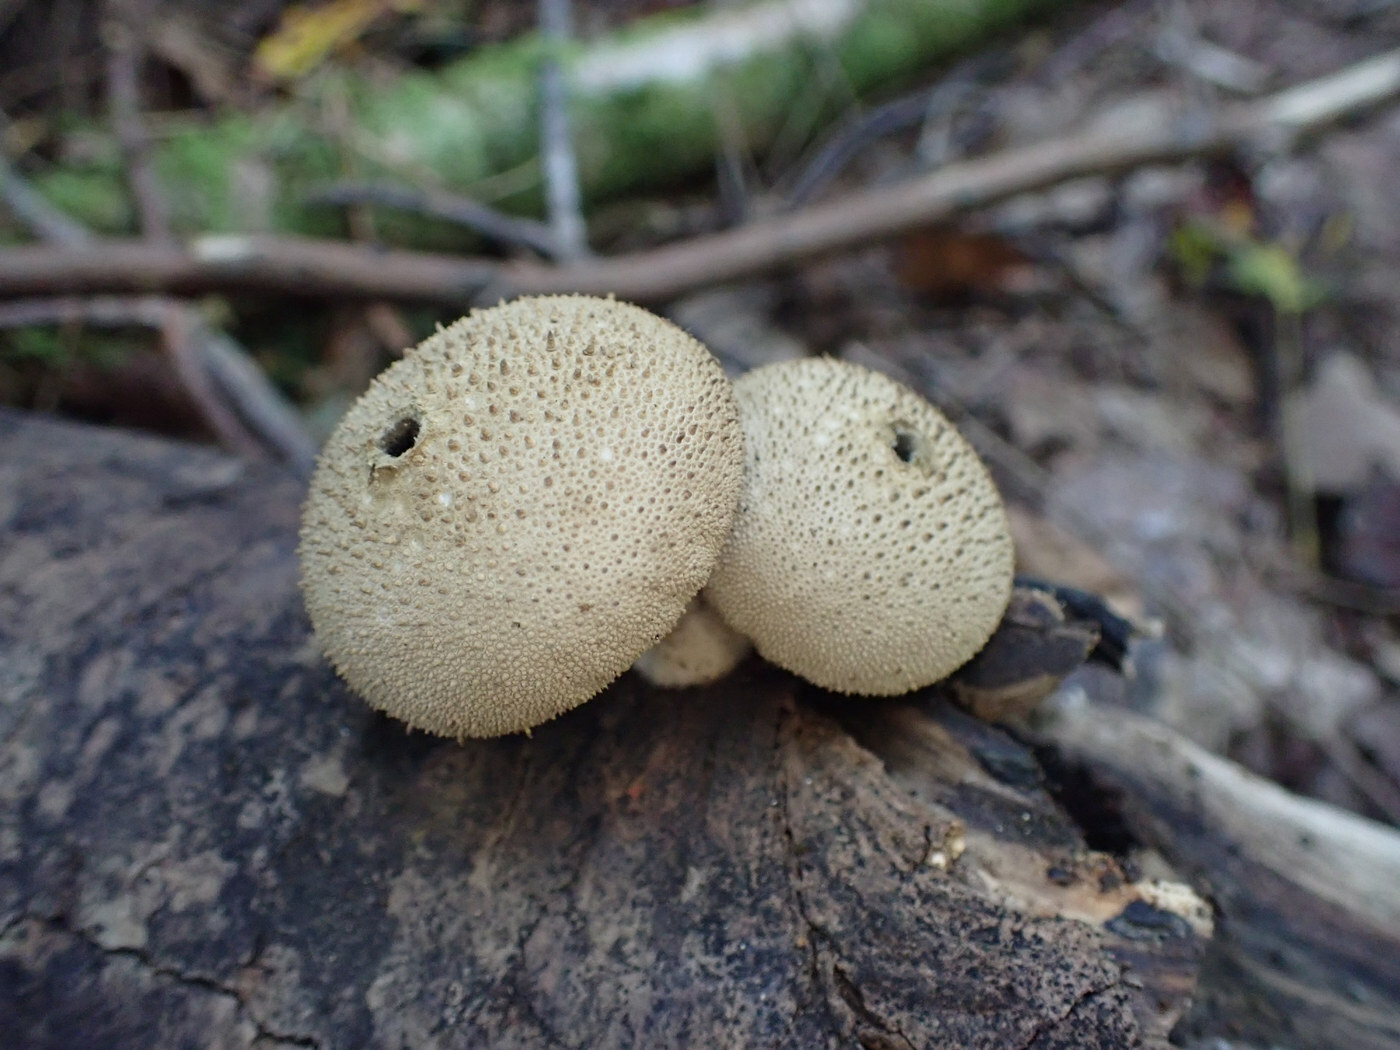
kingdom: Fungi
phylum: Basidiomycota
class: Agaricomycetes
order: Agaricales
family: Lycoperdaceae
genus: Lycoperdon
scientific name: Lycoperdon perlatum
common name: Common puffball
